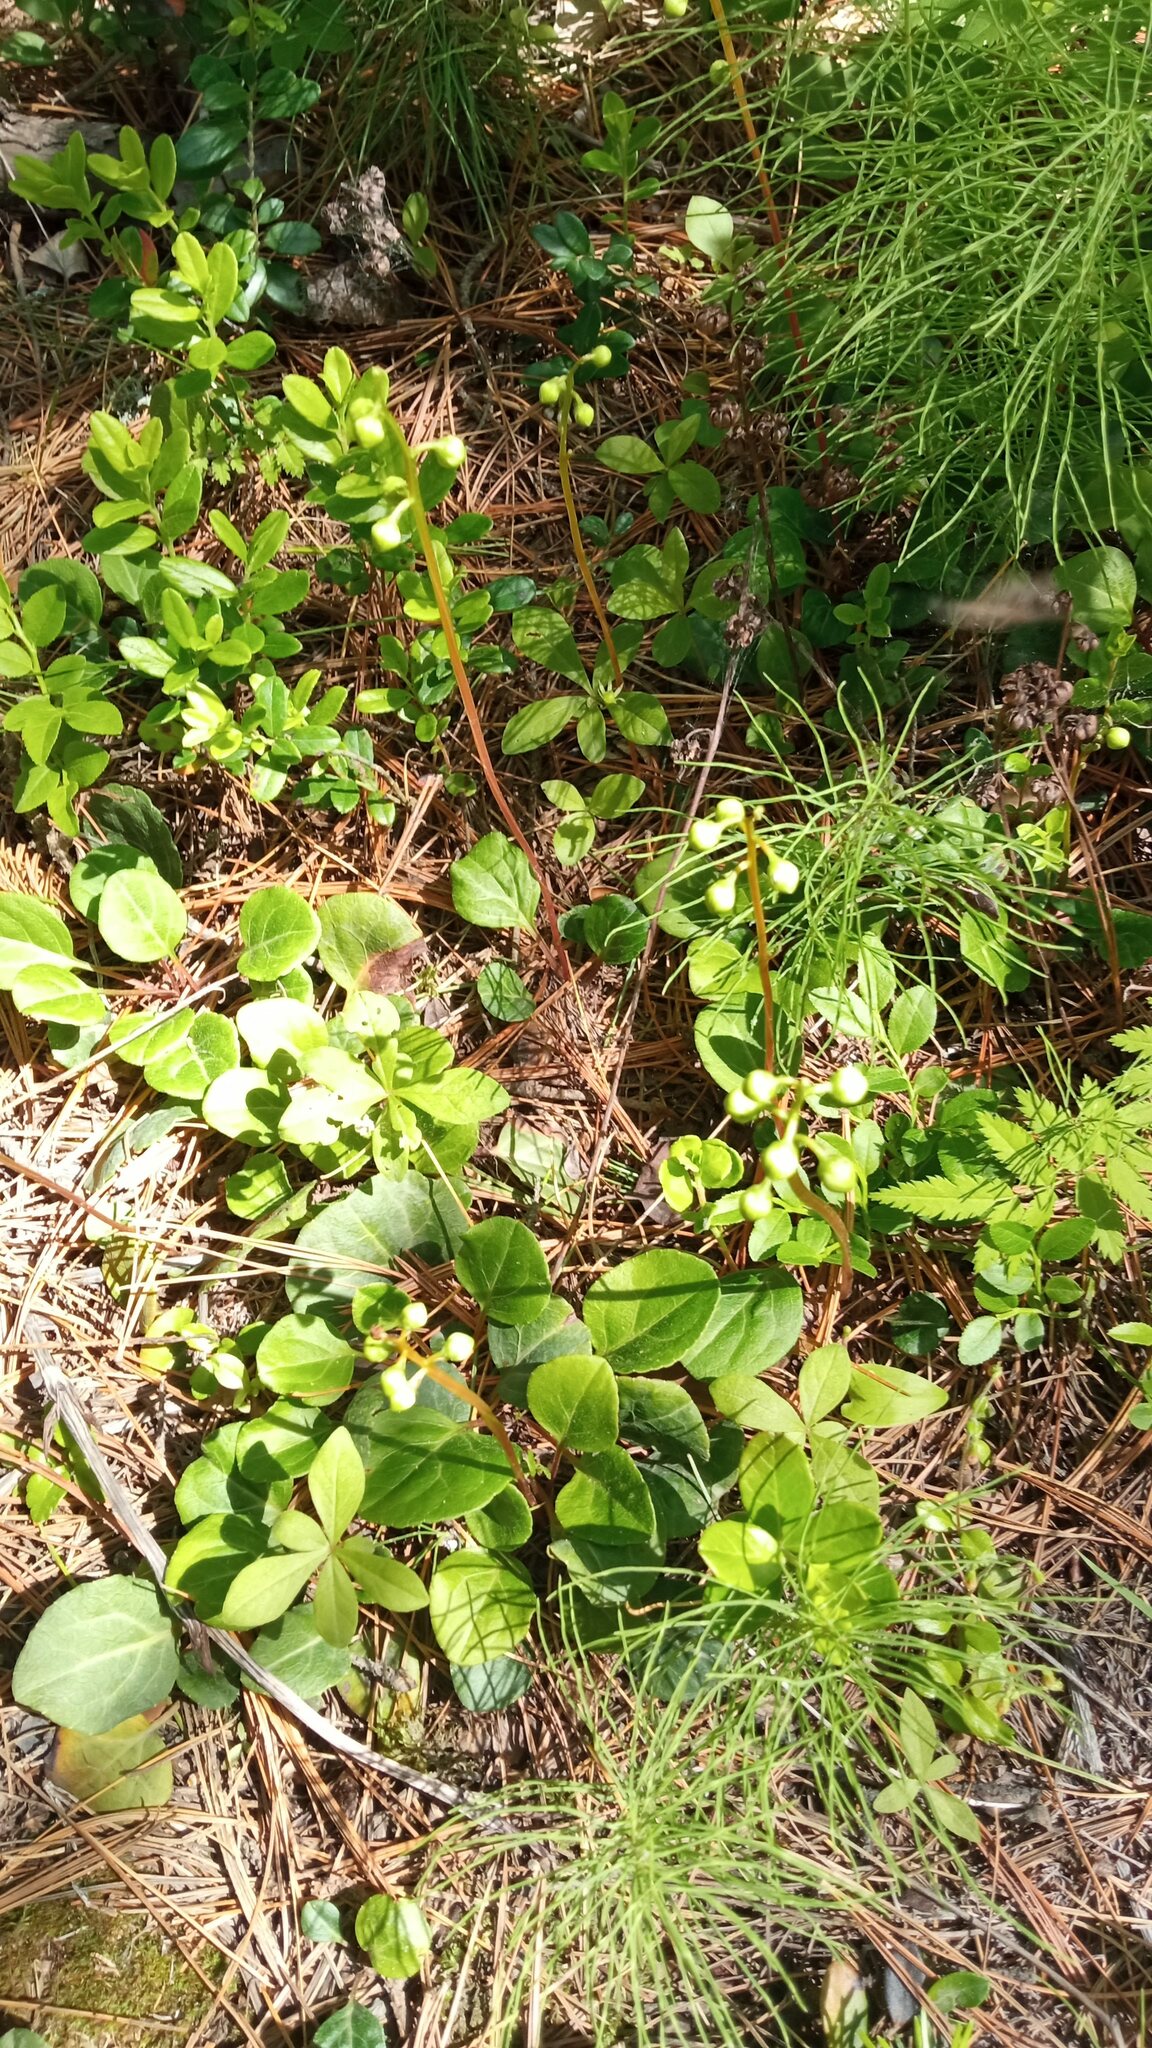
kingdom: Plantae
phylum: Tracheophyta
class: Magnoliopsida
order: Ericales
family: Ericaceae
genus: Pyrola
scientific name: Pyrola chlorantha
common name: Green wintergreen
